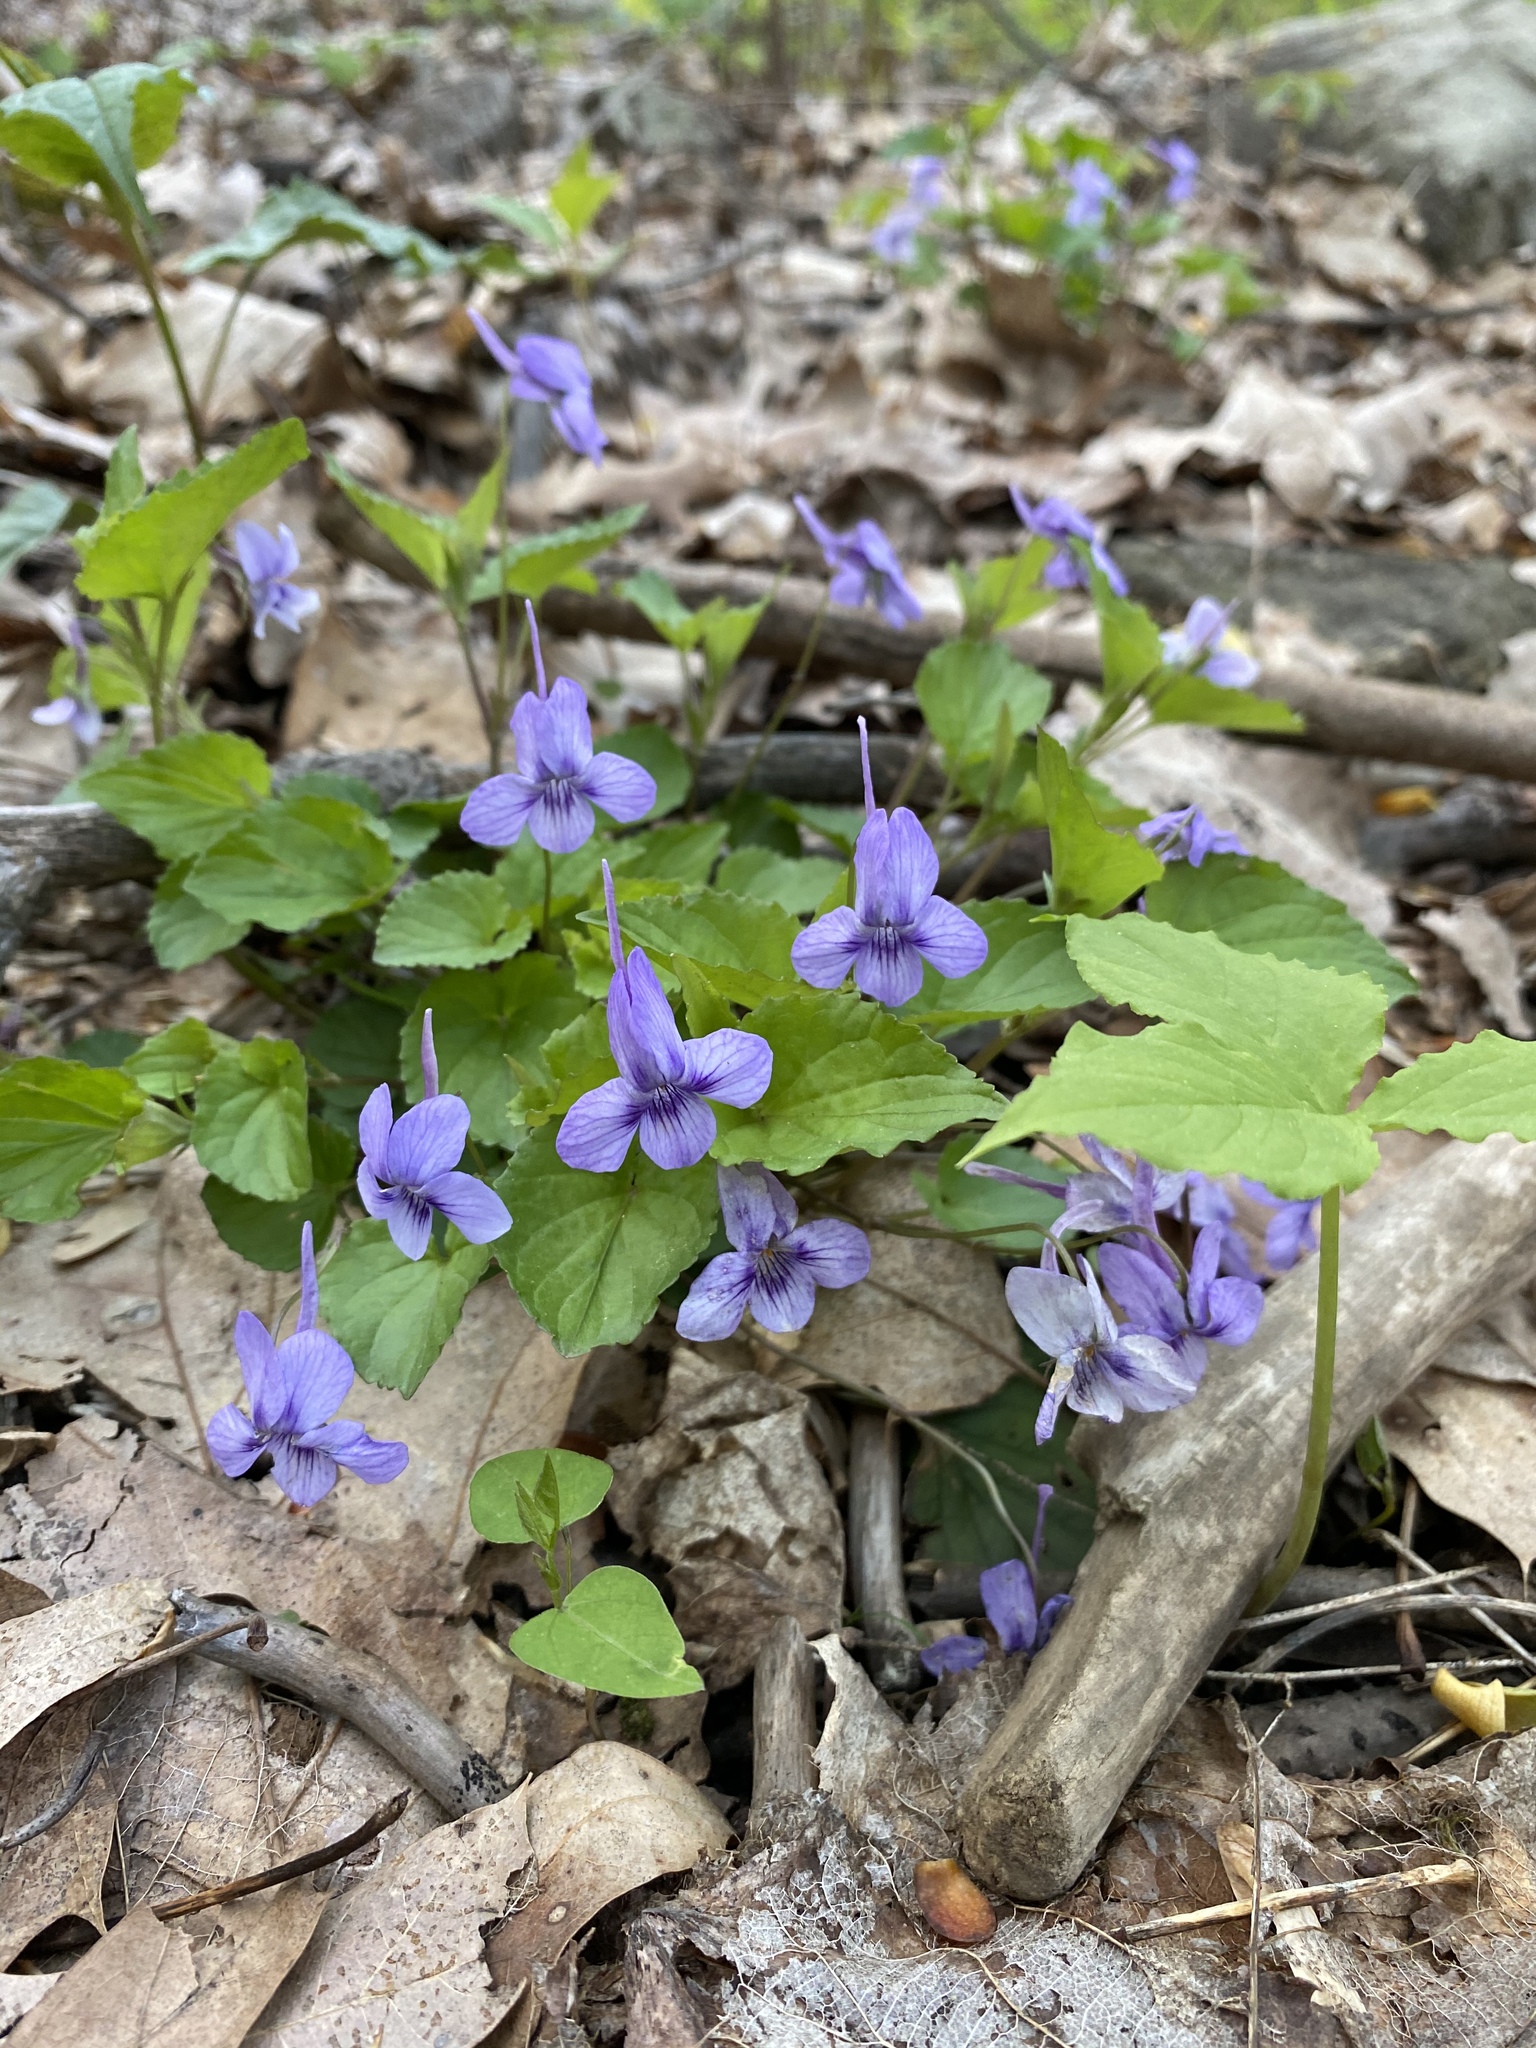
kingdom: Plantae
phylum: Tracheophyta
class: Magnoliopsida
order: Malpighiales
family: Violaceae
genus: Viola
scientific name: Viola rostrata
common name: Long-spur violet
